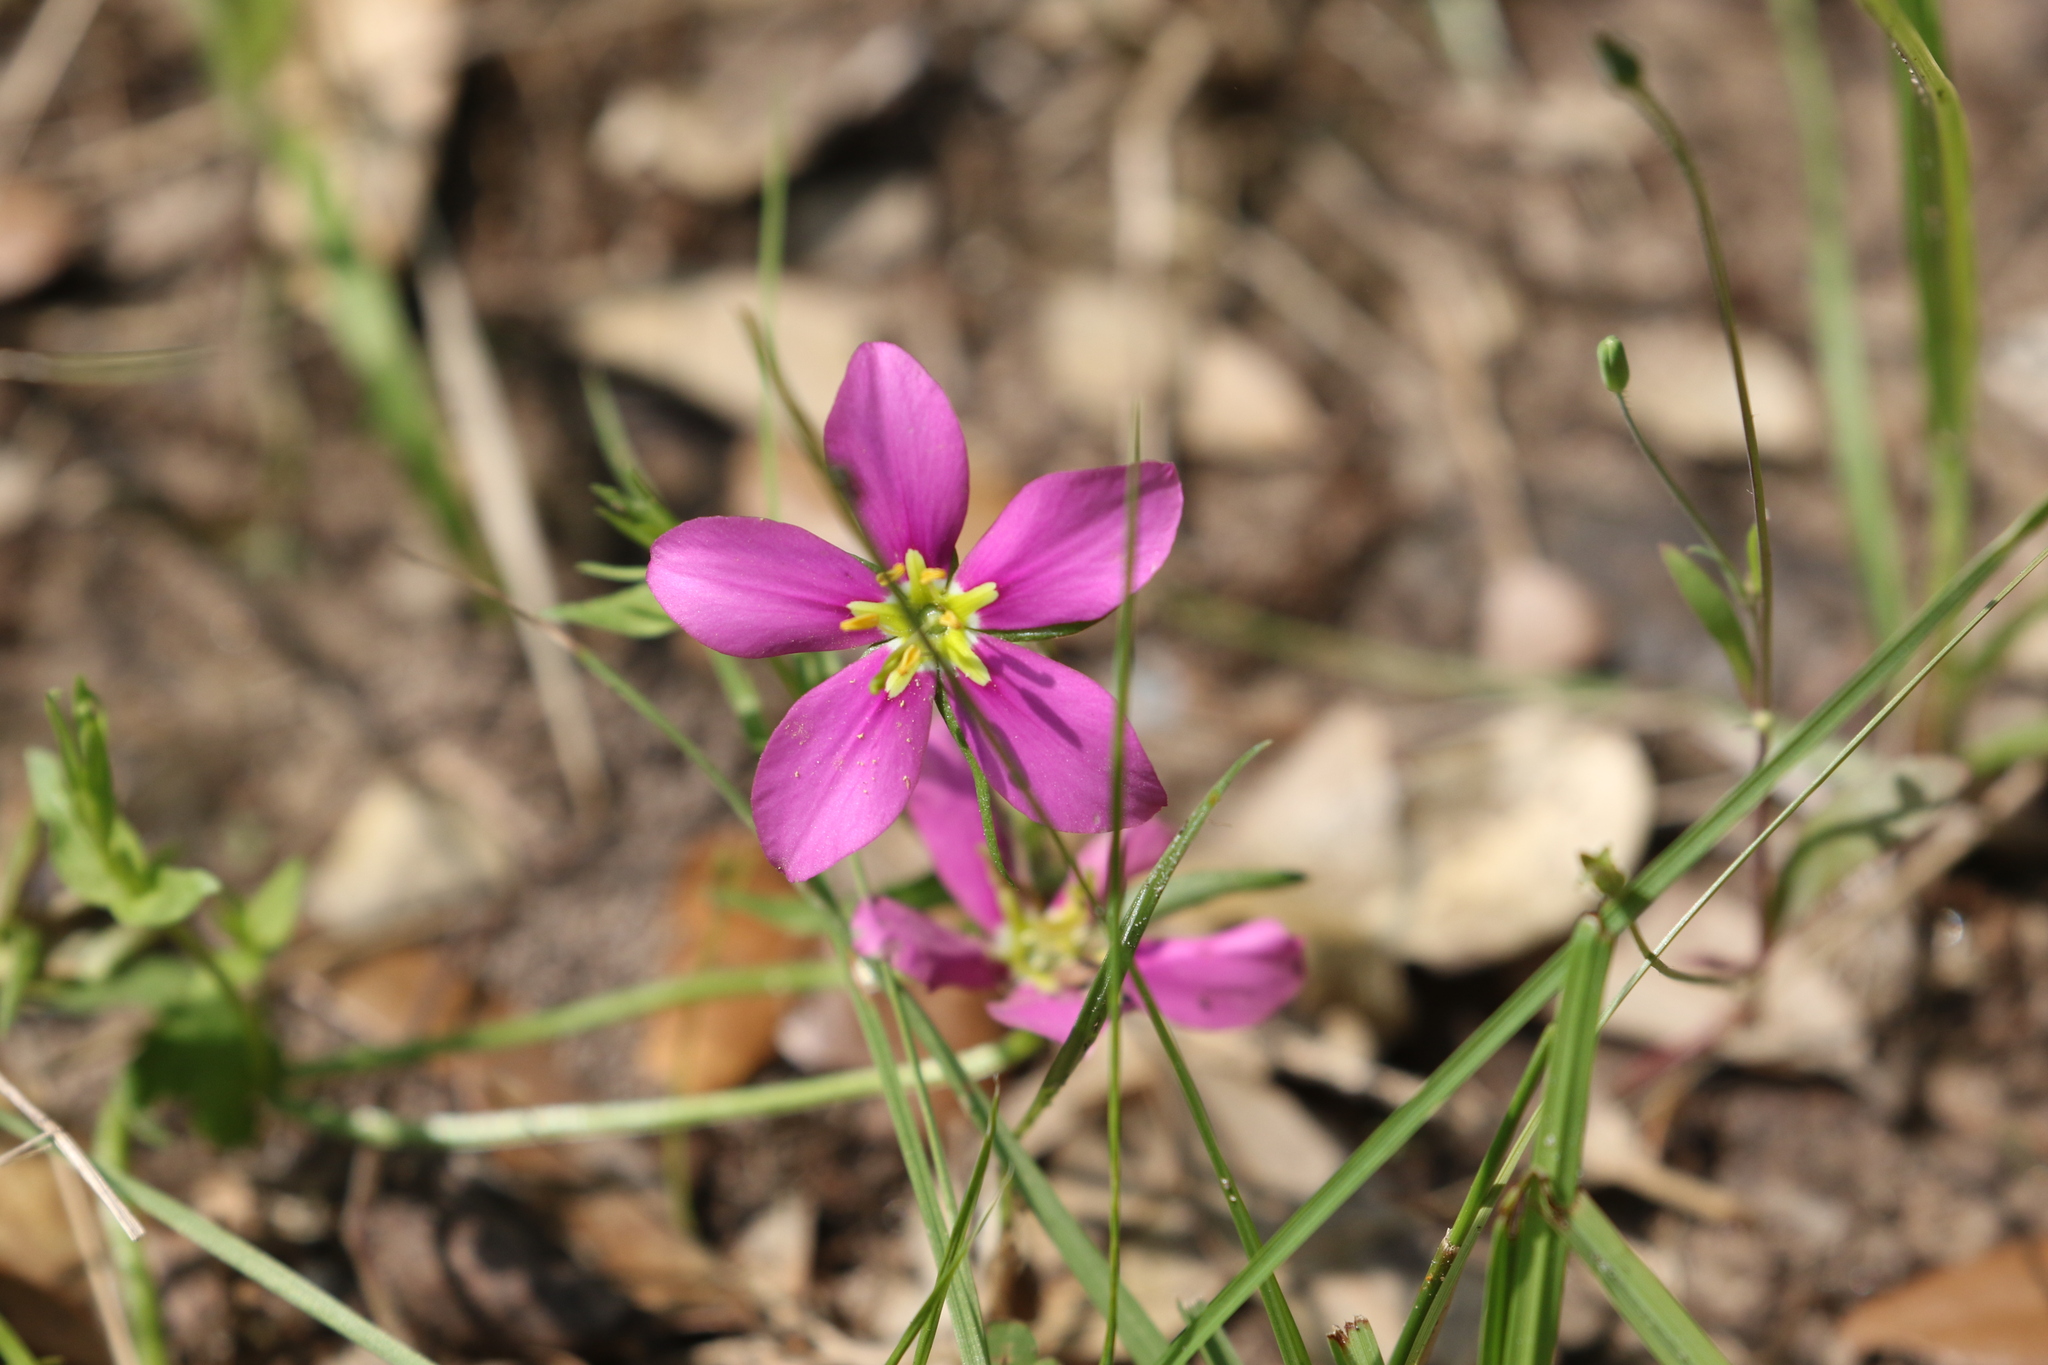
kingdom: Plantae
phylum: Tracheophyta
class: Magnoliopsida
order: Gentianales
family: Gentianaceae
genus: Sabatia
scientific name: Sabatia campestris
